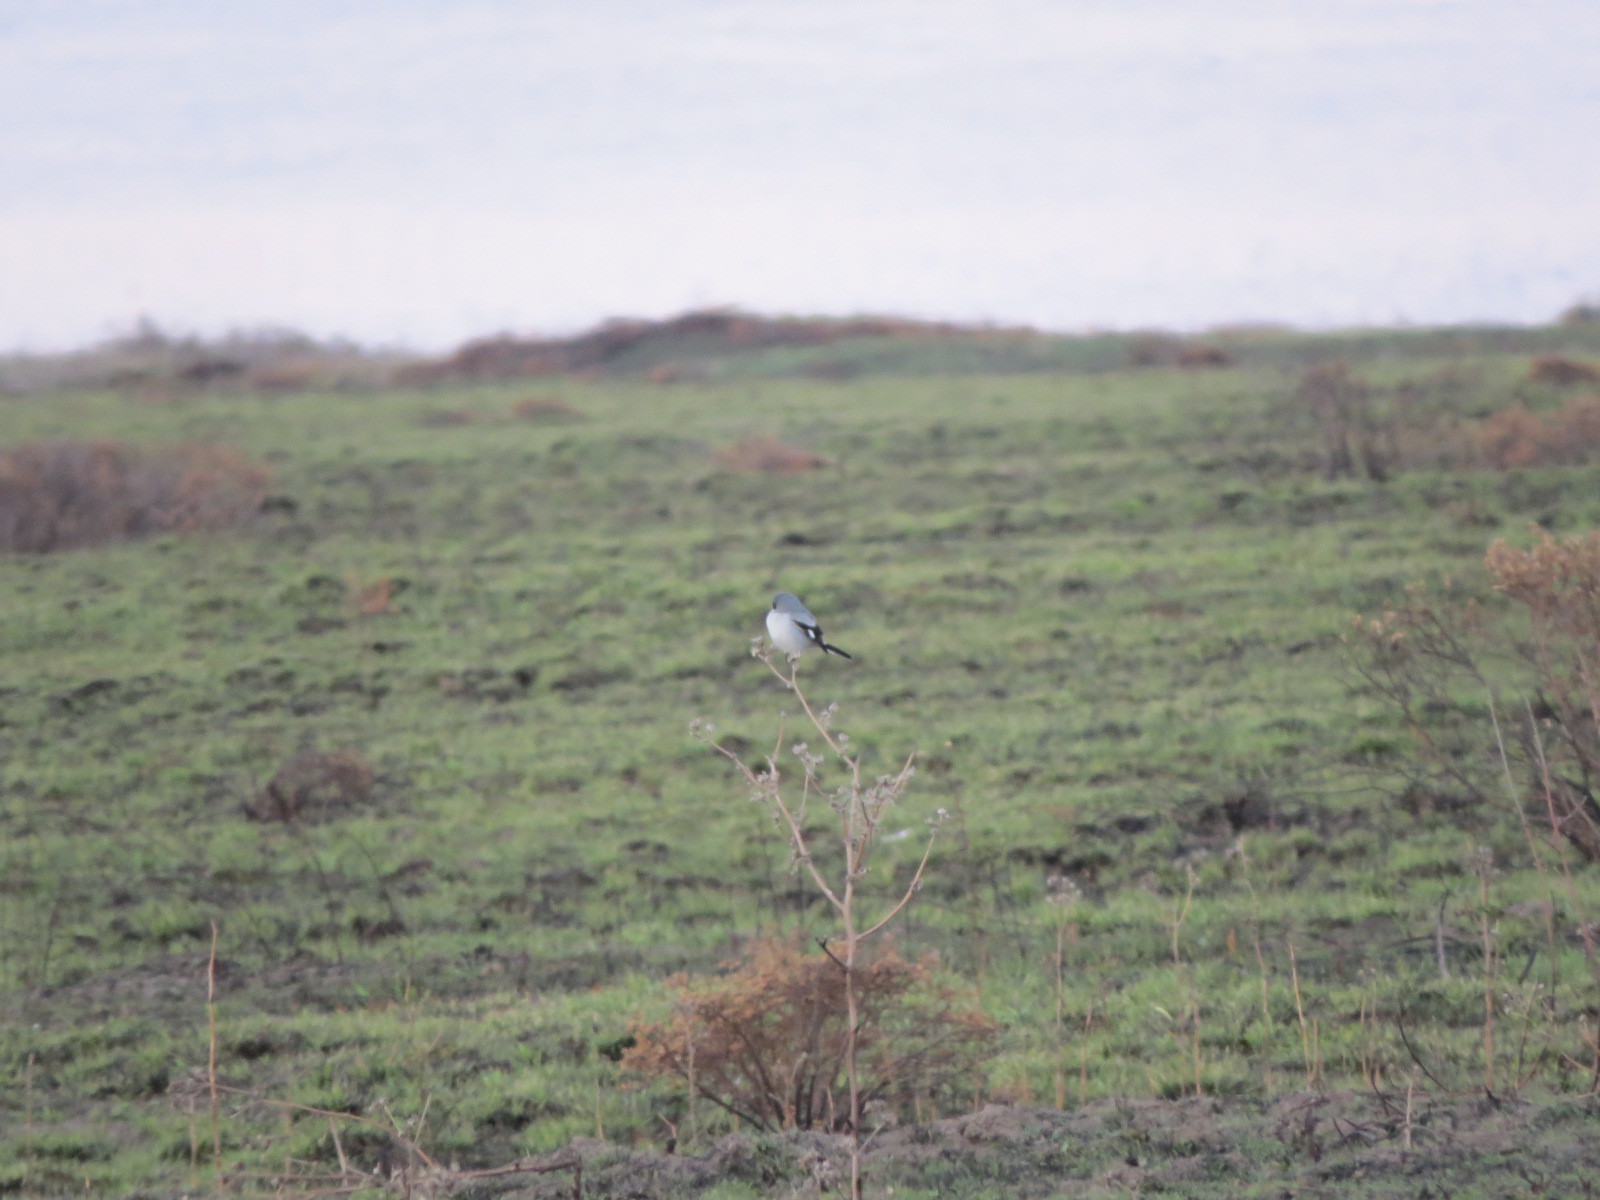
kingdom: Animalia
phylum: Chordata
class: Aves
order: Passeriformes
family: Laniidae
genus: Lanius
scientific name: Lanius ludovicianus
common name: Loggerhead shrike
